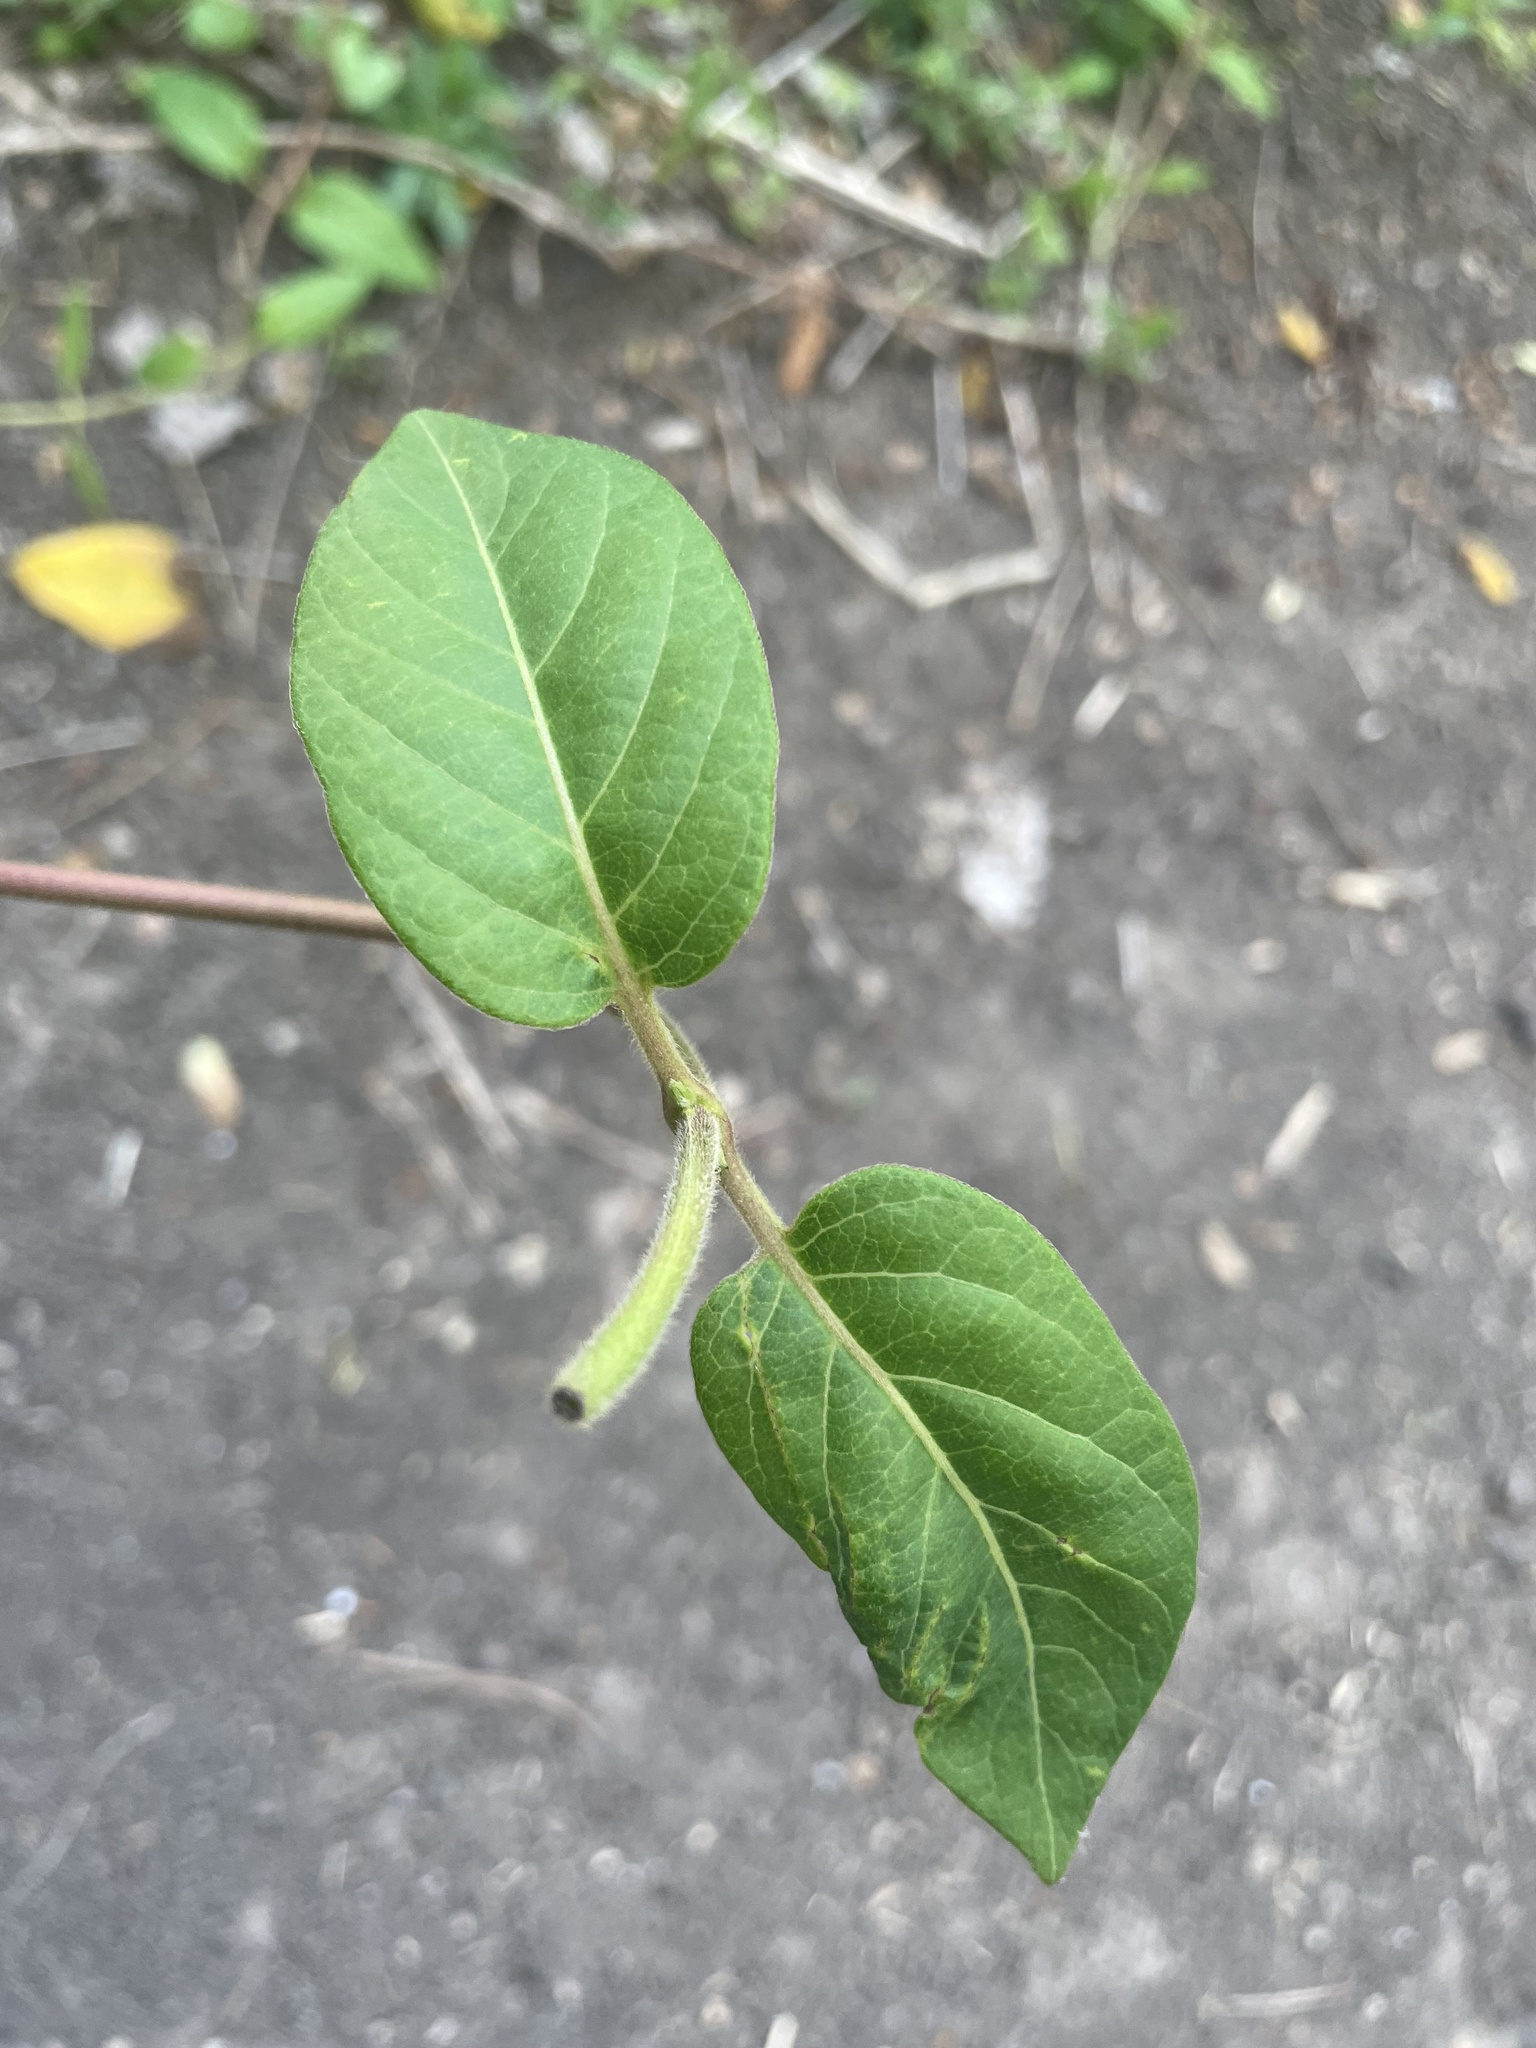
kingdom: Plantae
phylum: Tracheophyta
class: Magnoliopsida
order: Dipsacales
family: Caprifoliaceae
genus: Lonicera
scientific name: Lonicera japonica
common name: Japanese honeysuckle
